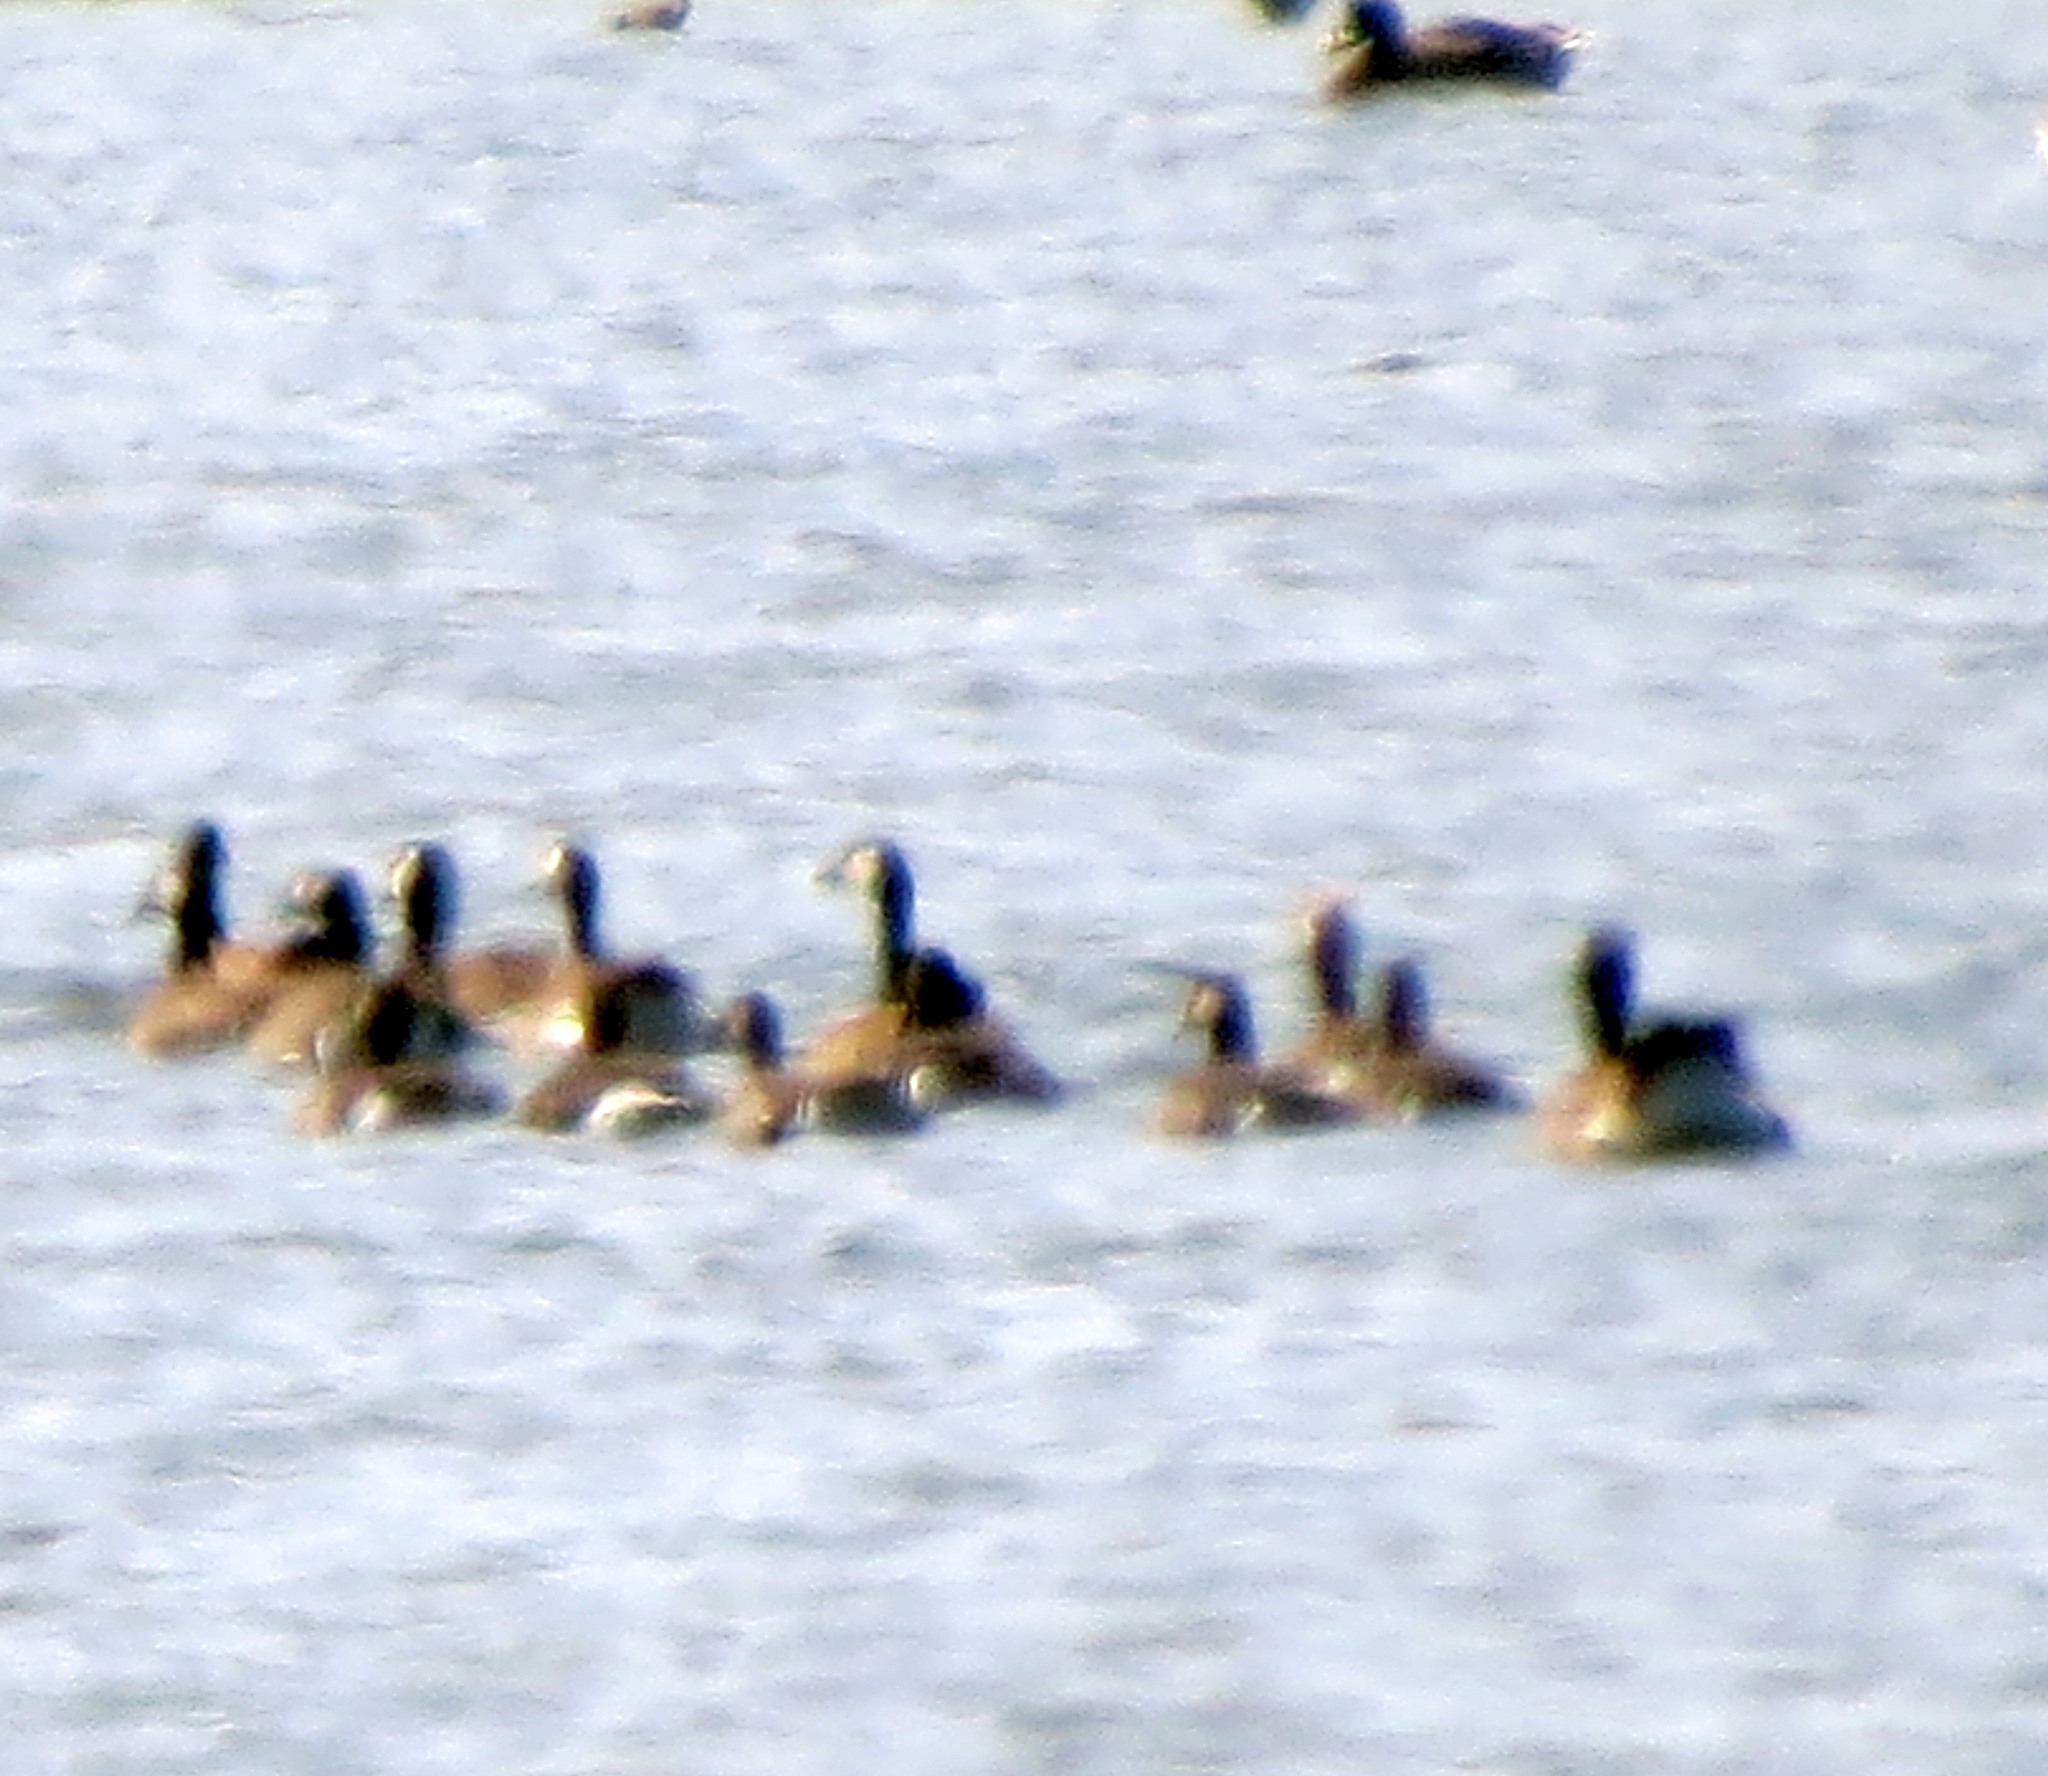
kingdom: Animalia
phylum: Chordata
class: Aves
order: Anseriformes
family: Anatidae
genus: Branta
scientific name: Branta canadensis
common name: Canada goose
